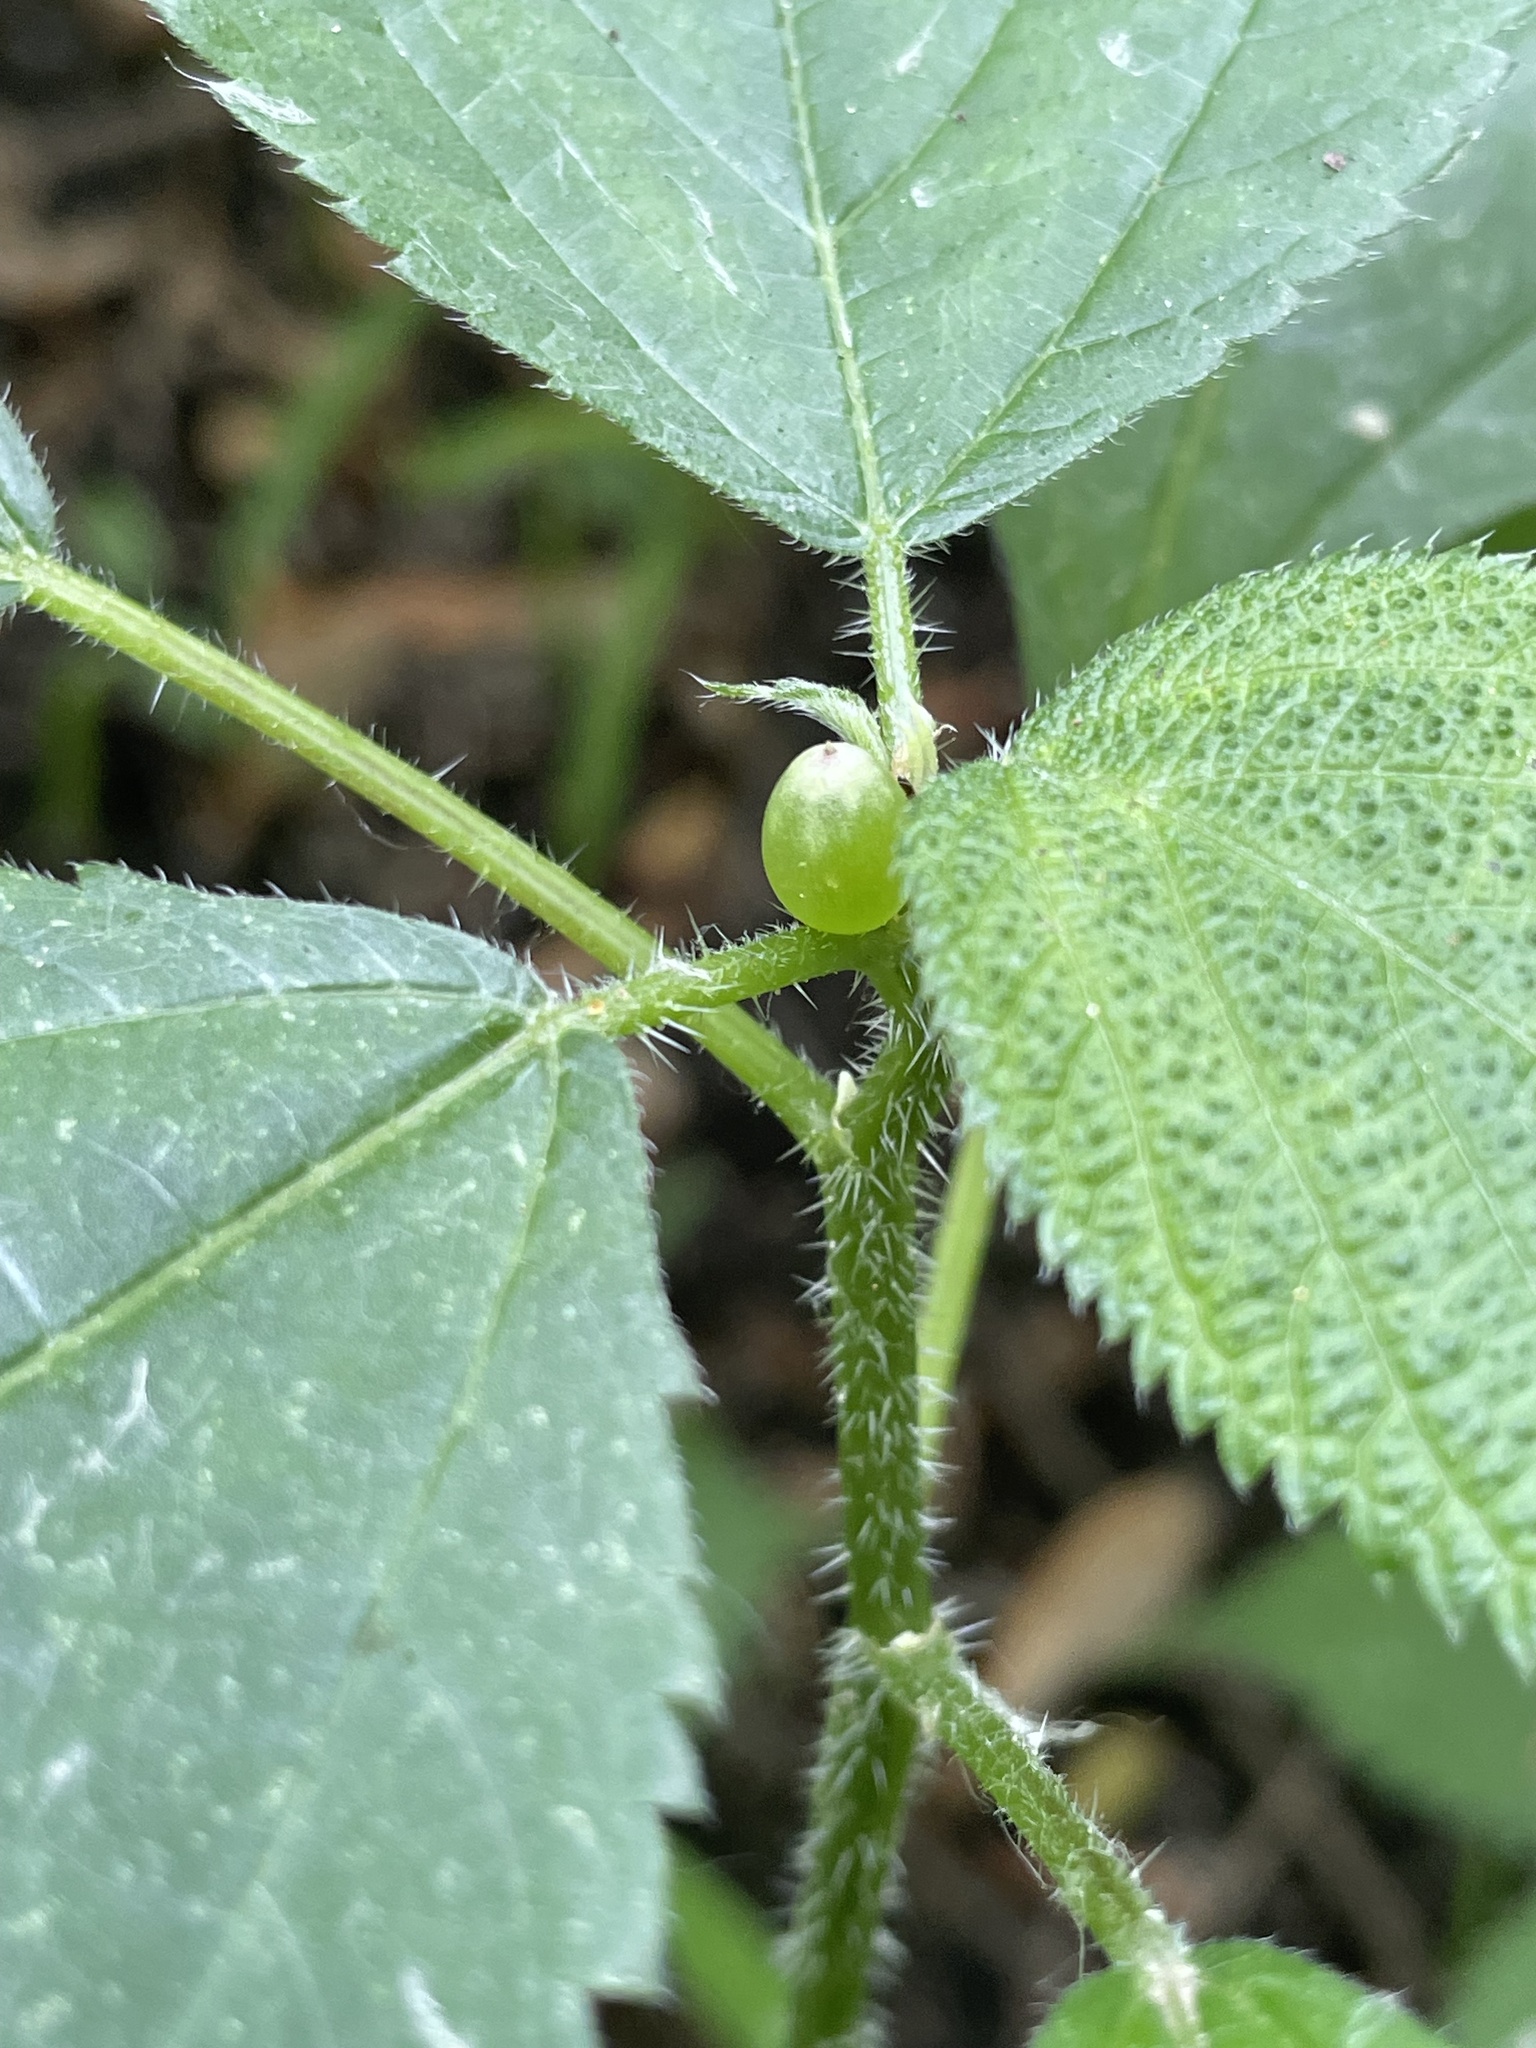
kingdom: Animalia
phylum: Arthropoda
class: Insecta
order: Diptera
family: Cecidomyiidae
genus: Dasineura
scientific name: Dasineura investita
